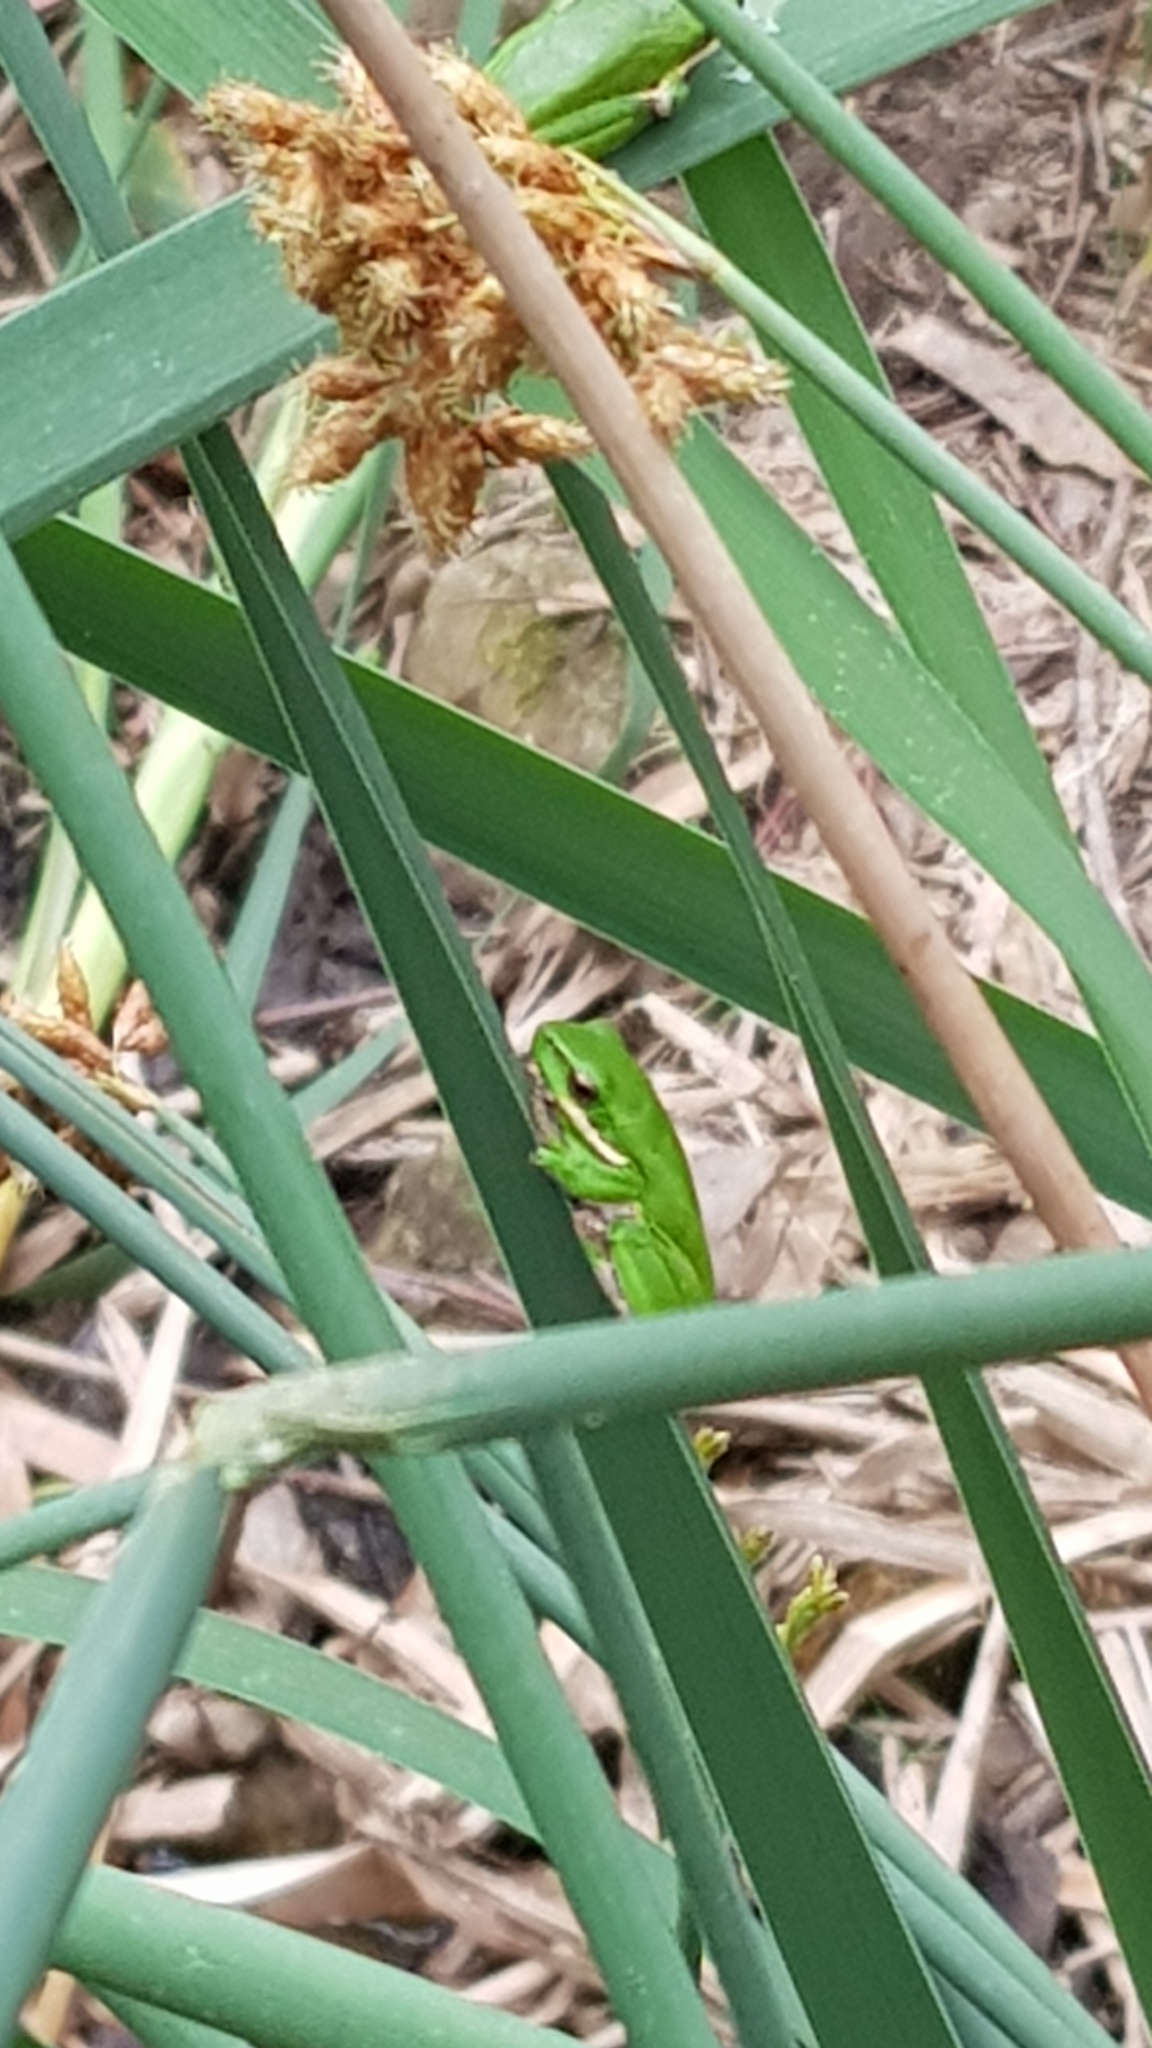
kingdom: Animalia
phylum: Chordata
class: Amphibia
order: Anura
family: Pelodryadidae
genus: Litoria
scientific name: Litoria fallax
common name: Eastern dwarf treefrog
